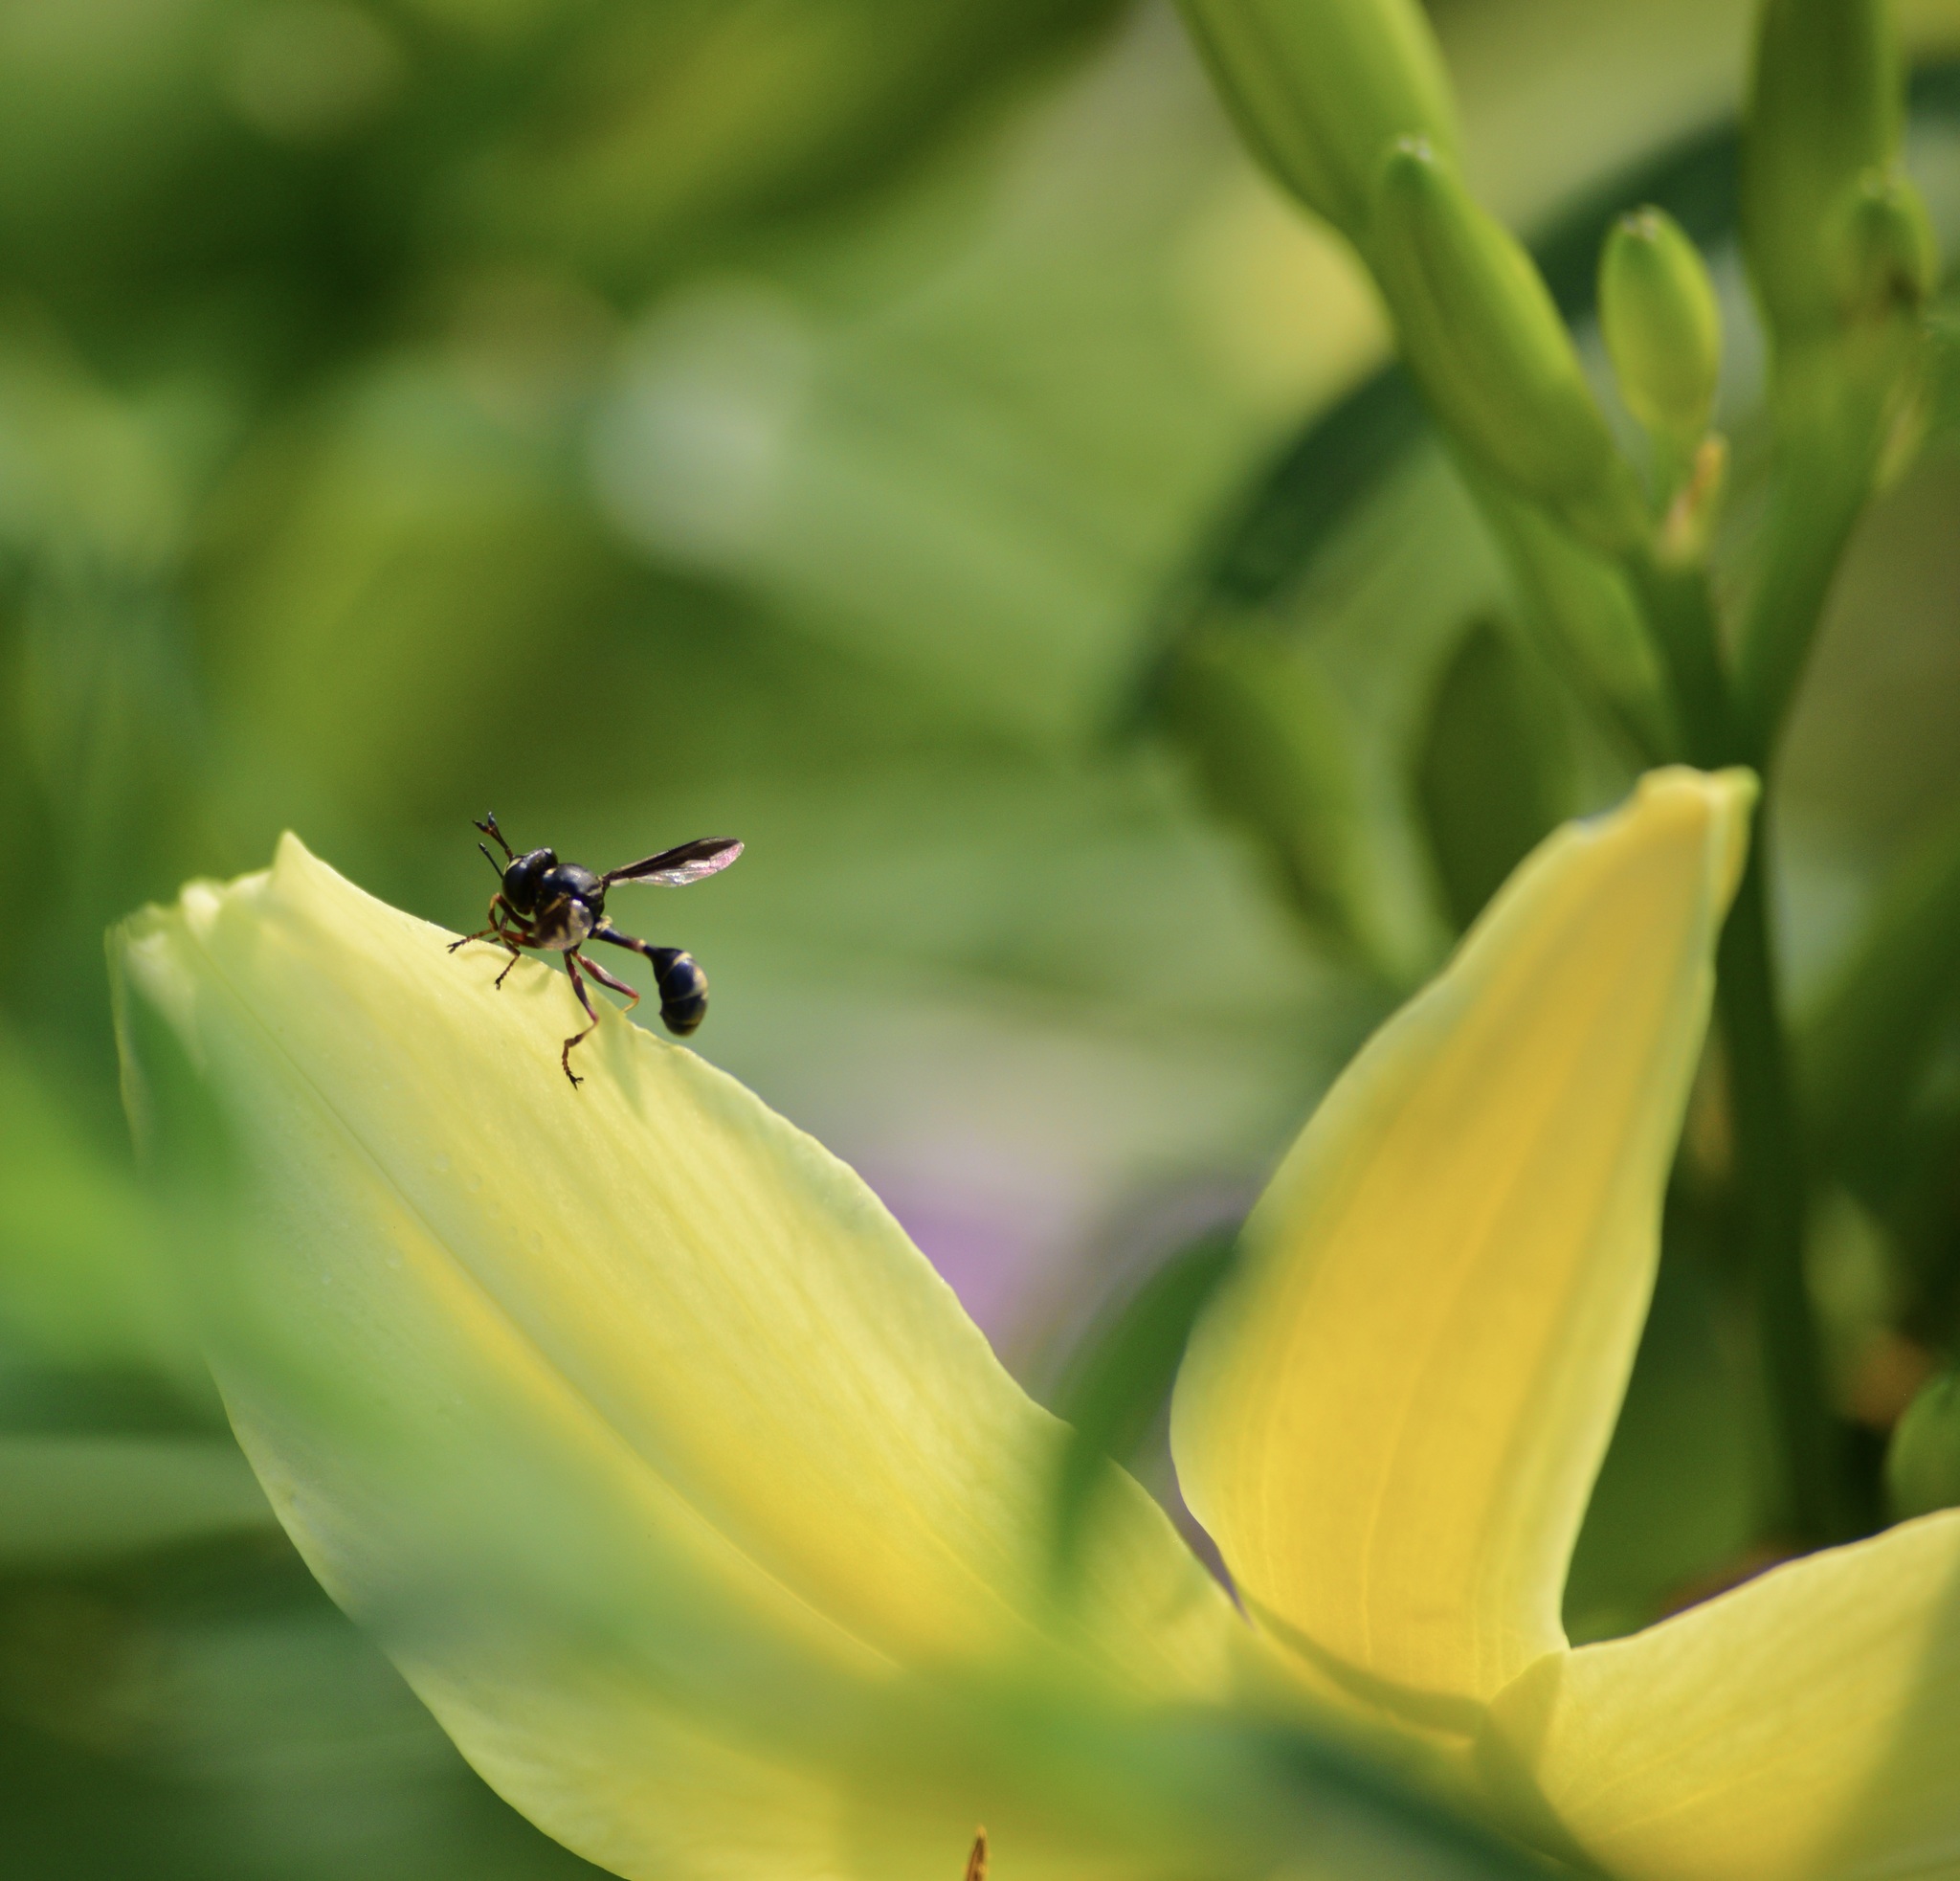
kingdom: Animalia
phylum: Arthropoda
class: Insecta
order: Diptera
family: Conopidae
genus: Physocephala
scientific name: Physocephala furcillata
